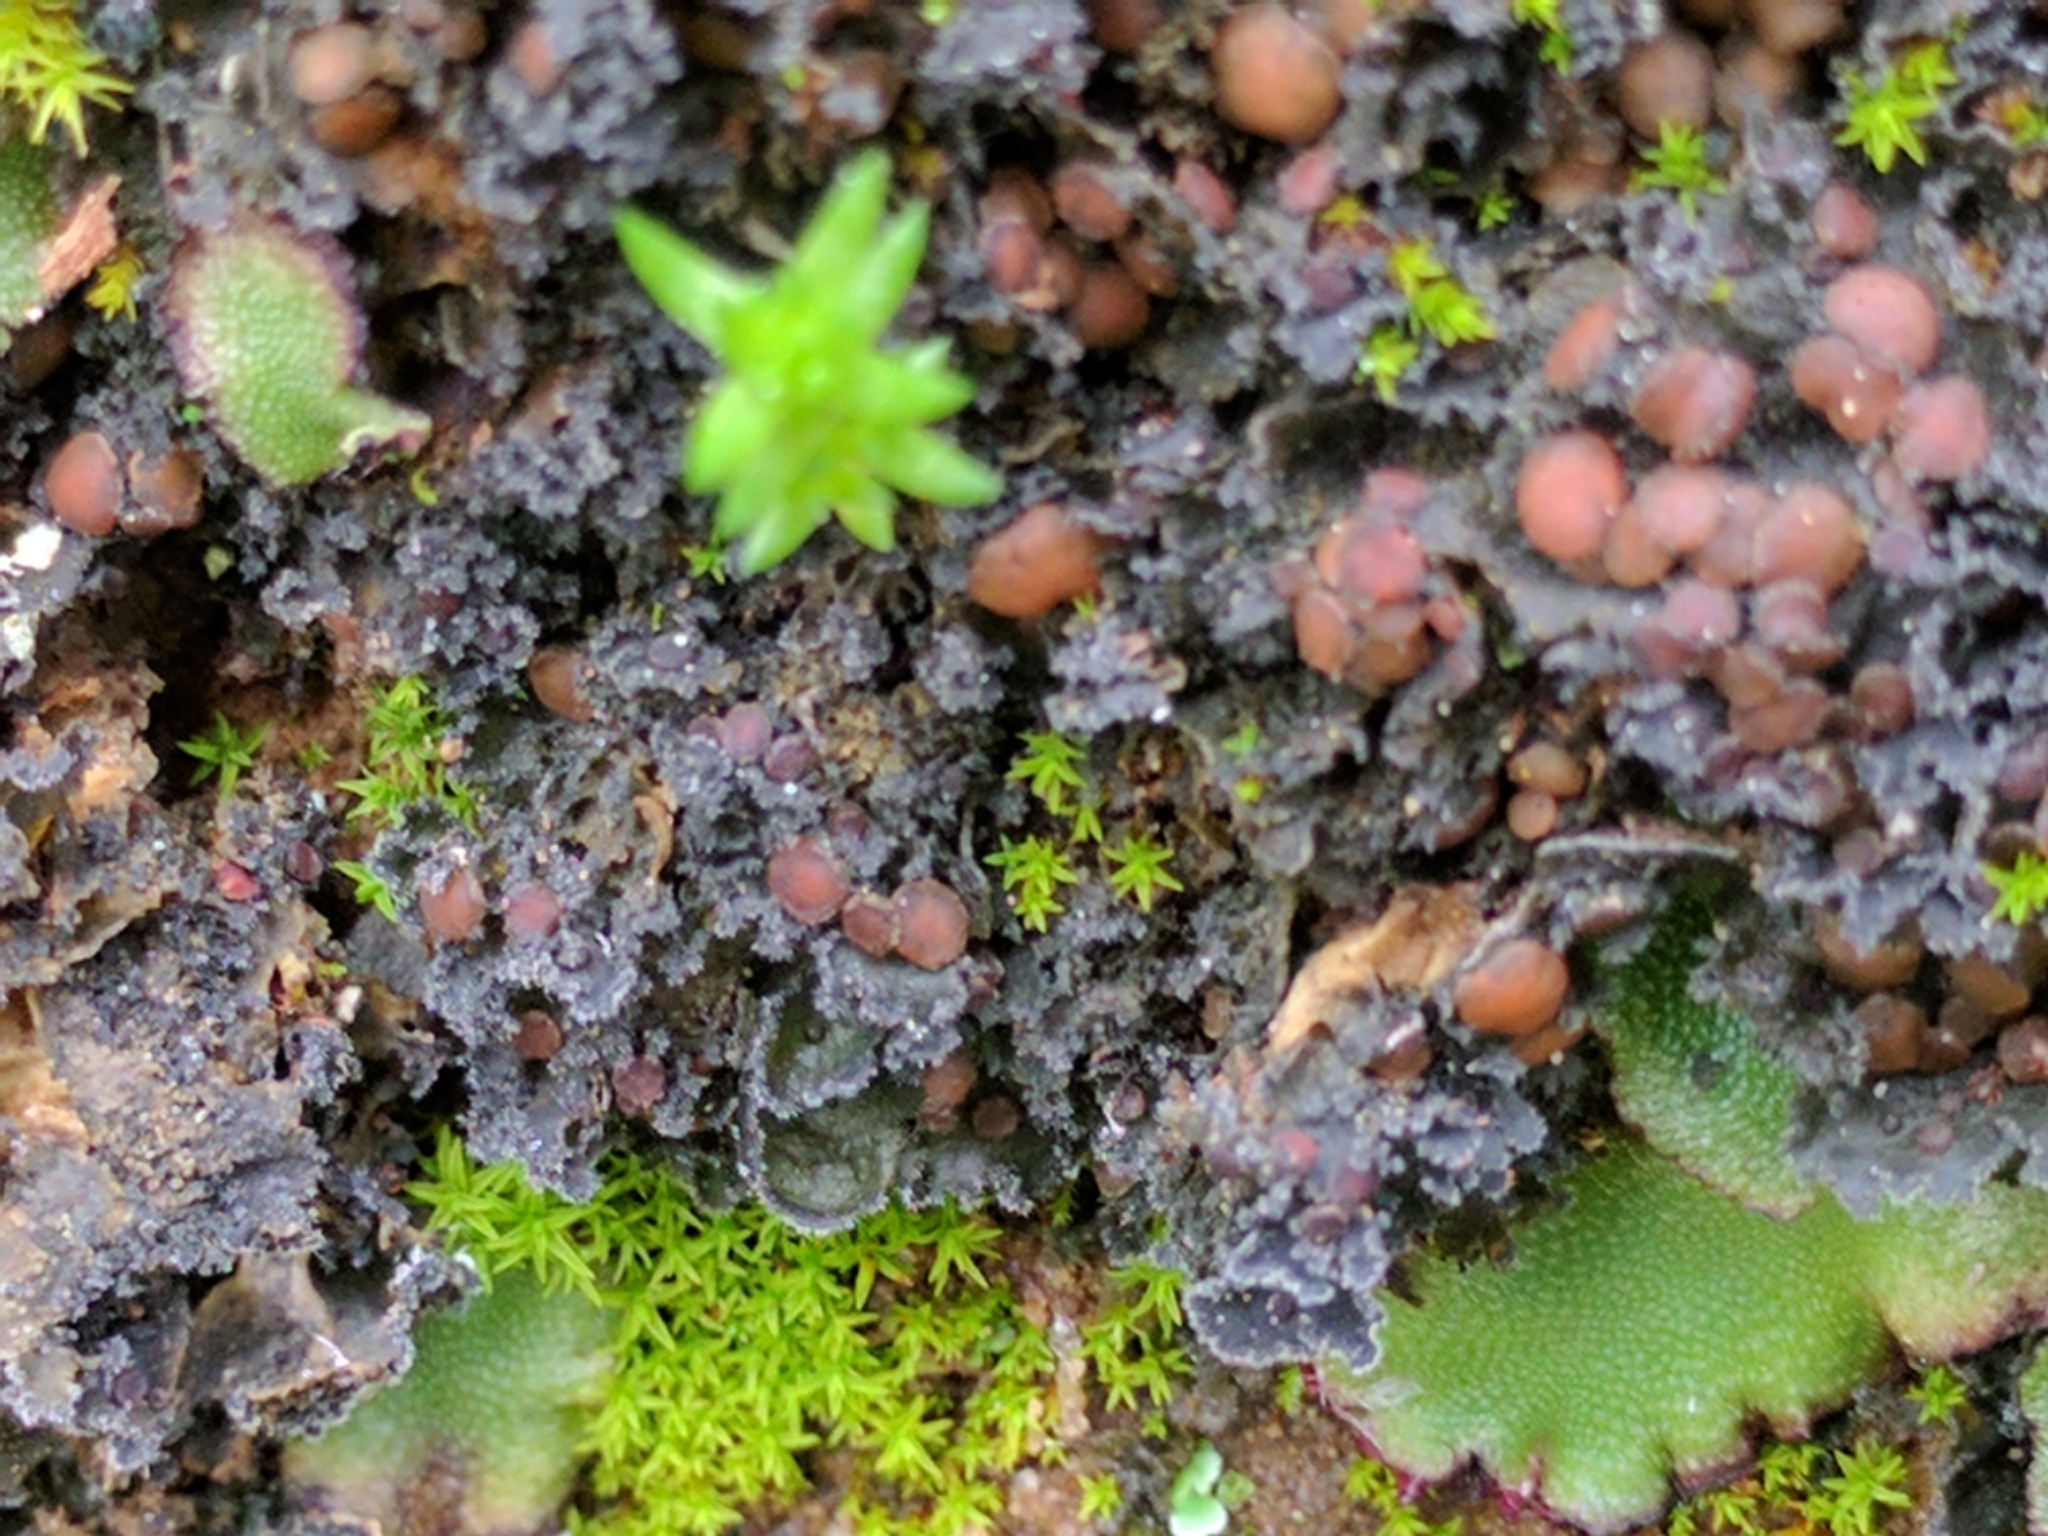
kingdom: Fungi
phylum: Ascomycota
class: Lecanoromycetes
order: Peltigerales
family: Massalongiaceae
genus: Leptochidium
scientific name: Leptochidium albociliatum
